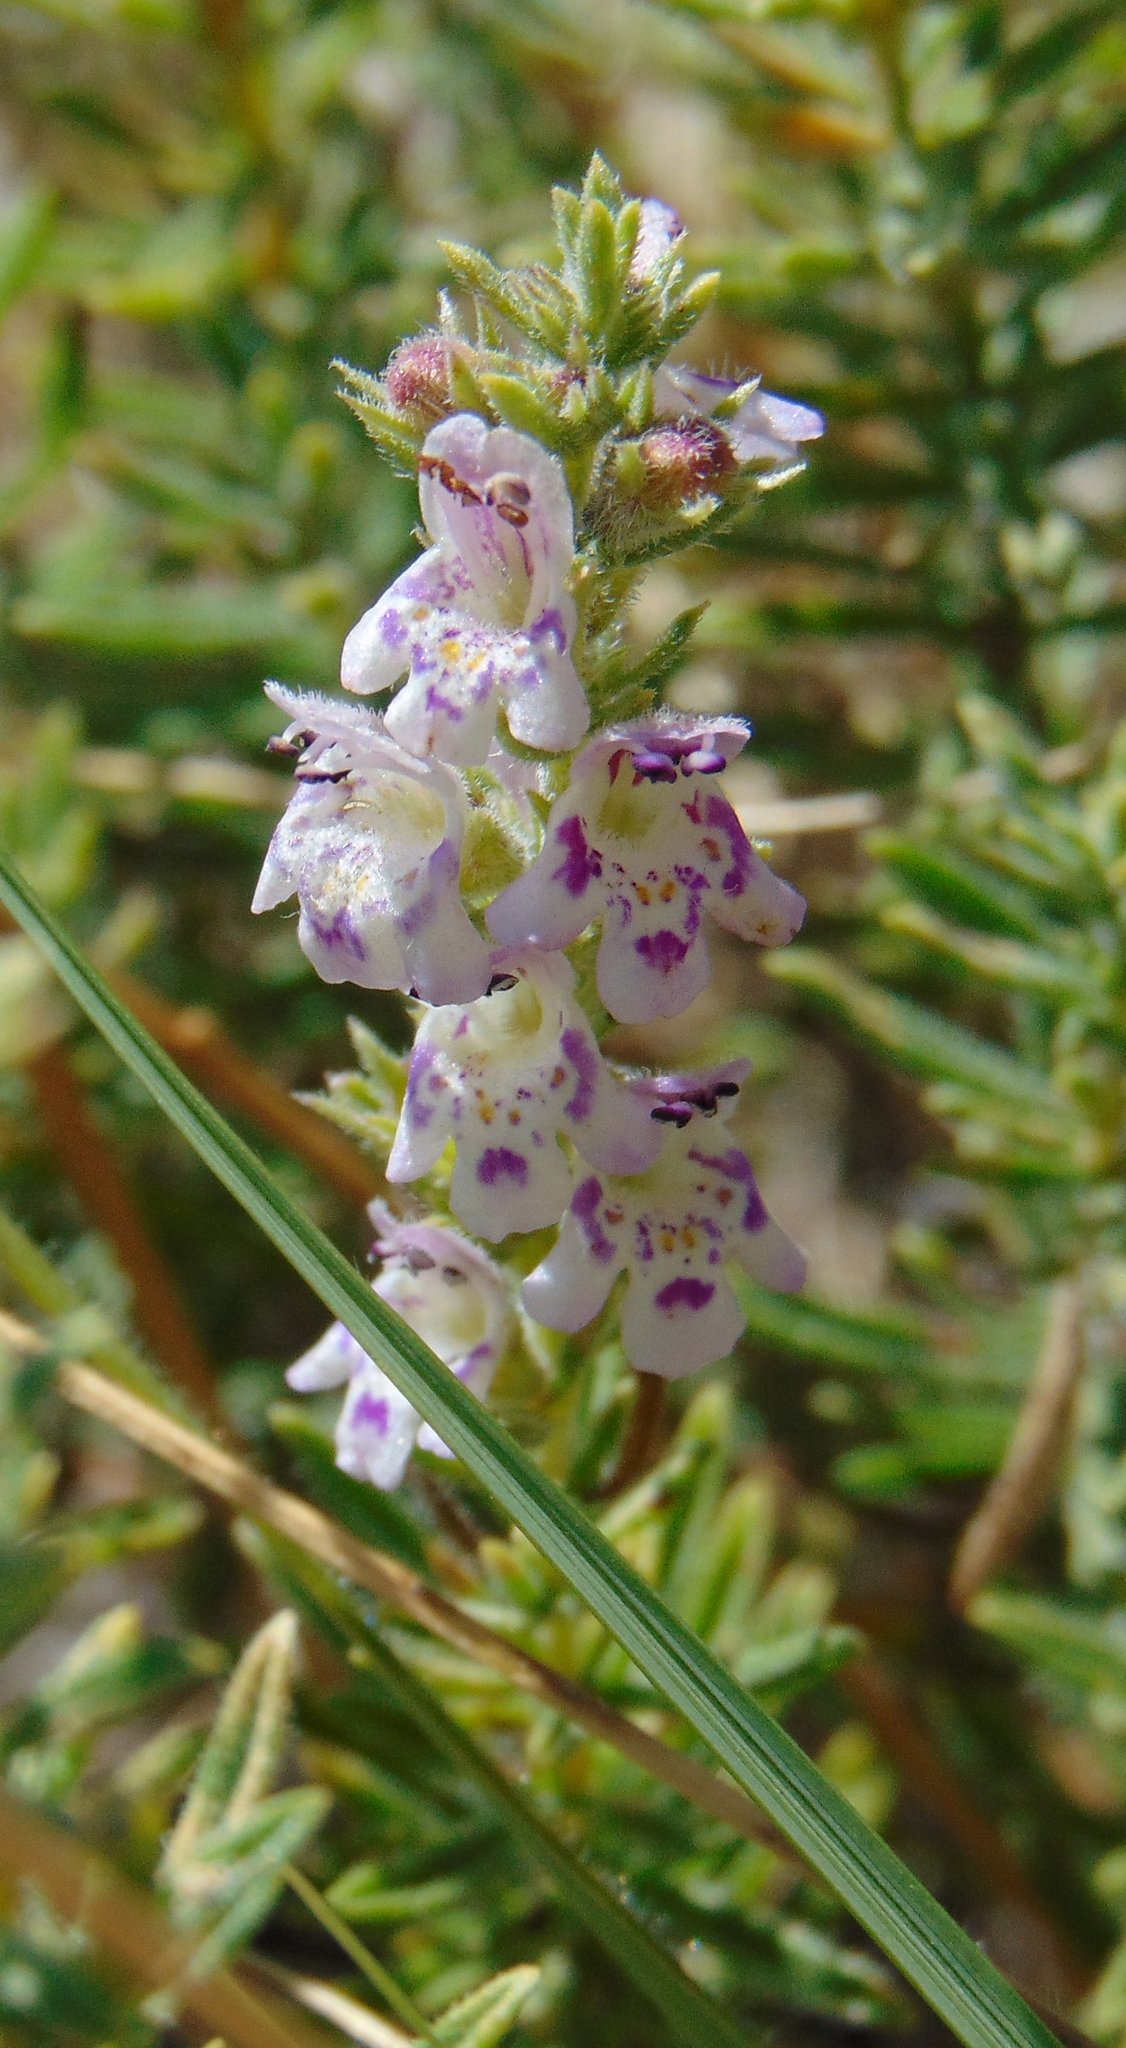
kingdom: Plantae
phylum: Tracheophyta
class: Magnoliopsida
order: Lamiales
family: Lamiaceae
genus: Satureja
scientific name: Satureja cuneifolia
